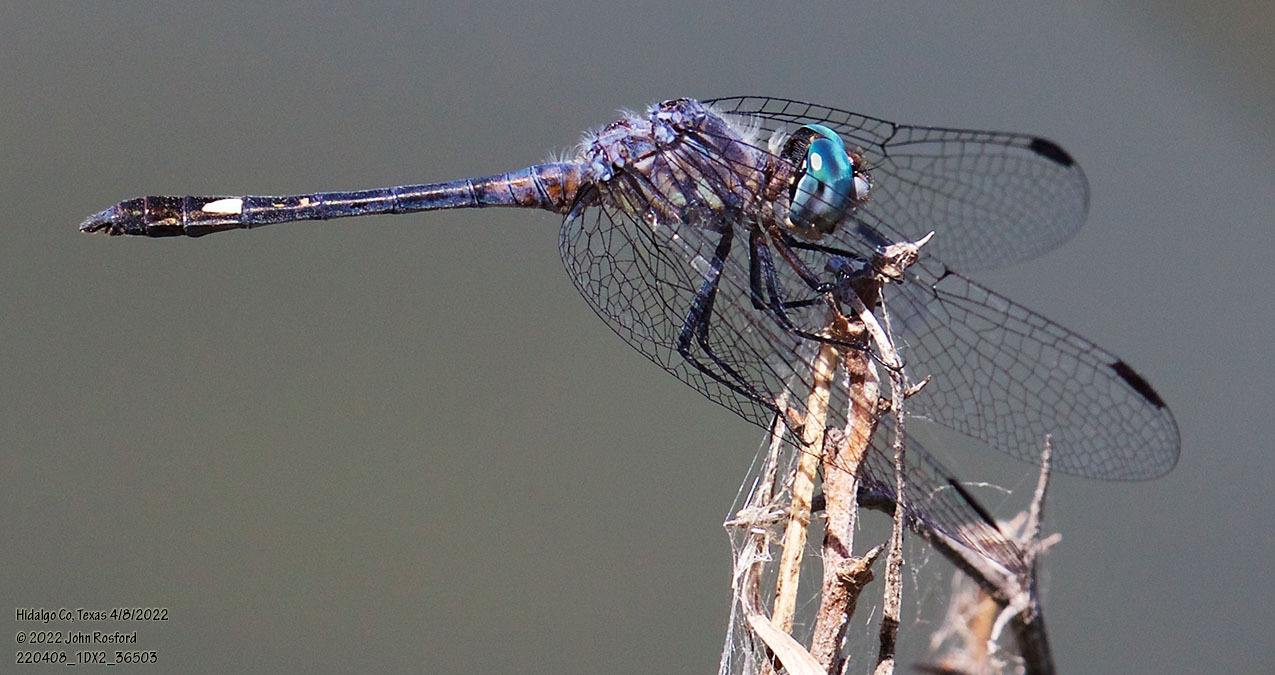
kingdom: Animalia
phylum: Arthropoda
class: Insecta
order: Odonata
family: Libellulidae
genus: Micrathyria
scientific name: Micrathyria aequalis
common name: Spot-tailed dasher
